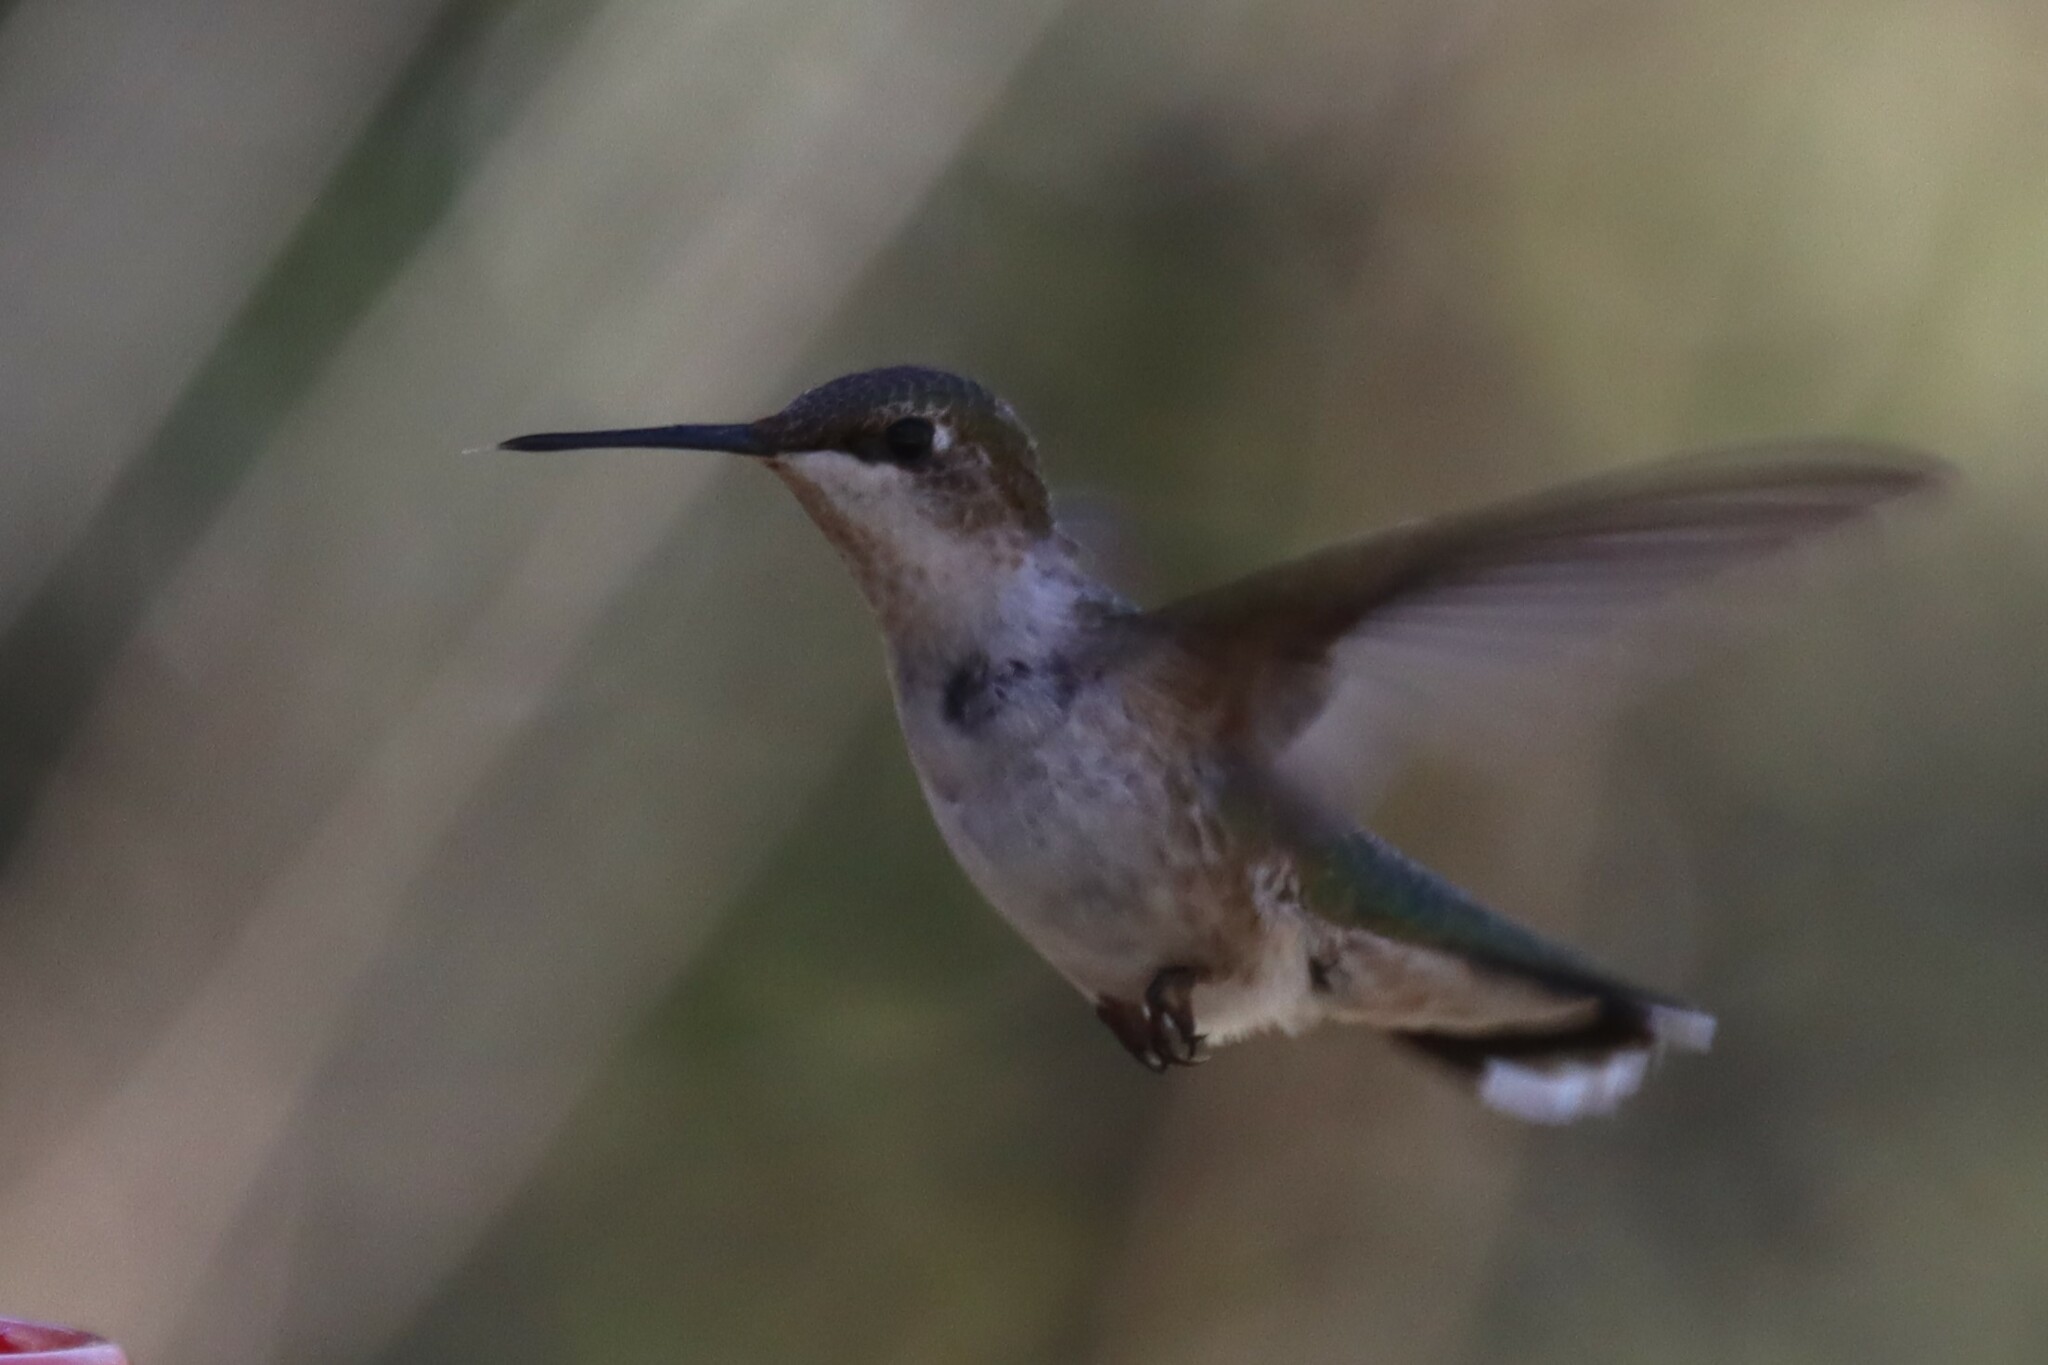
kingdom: Animalia
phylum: Chordata
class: Aves
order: Apodiformes
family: Trochilidae
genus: Archilochus
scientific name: Archilochus colubris
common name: Ruby-throated hummingbird
